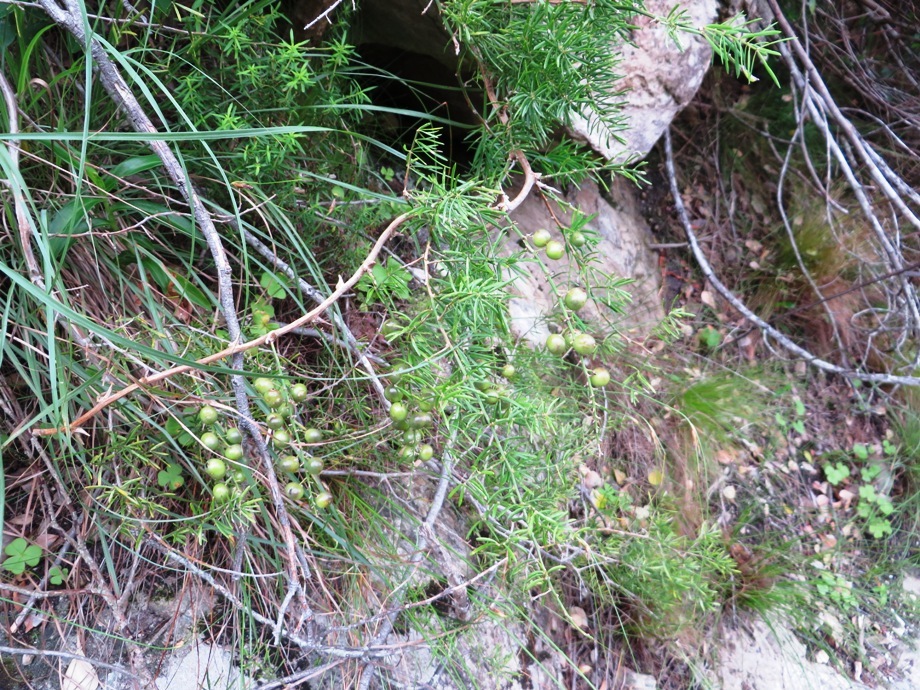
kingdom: Plantae
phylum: Tracheophyta
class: Liliopsida
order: Asparagales
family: Asparagaceae
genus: Asparagus
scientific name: Asparagus aethiopicus
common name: Sprenger's asparagus fern
